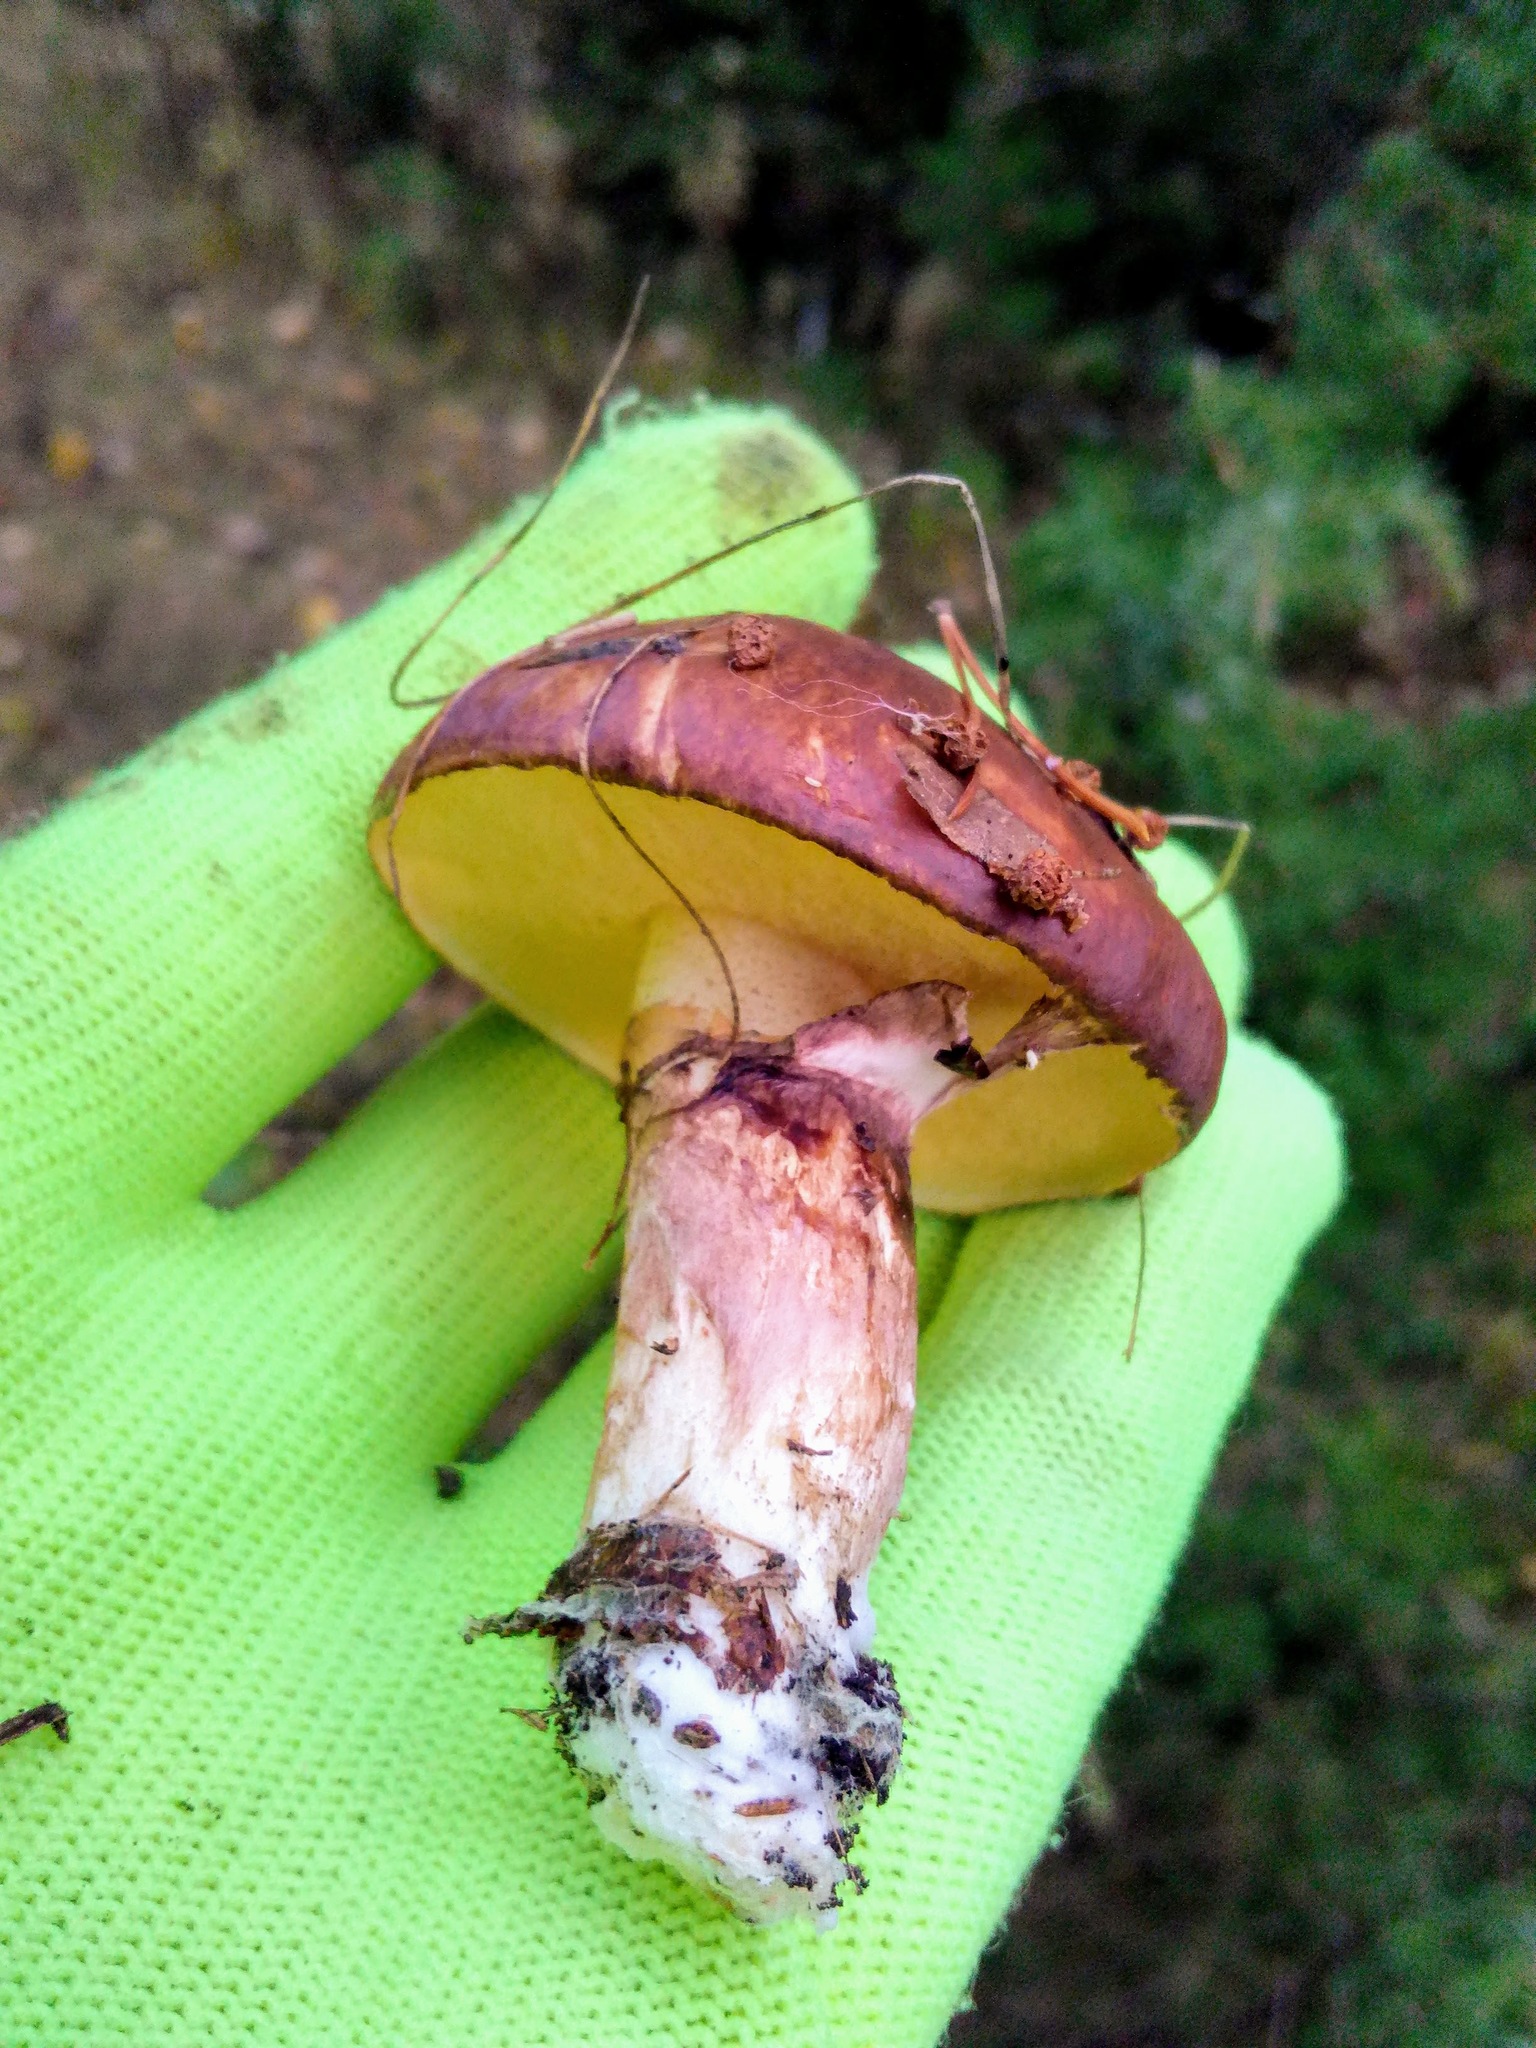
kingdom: Fungi
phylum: Basidiomycota
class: Agaricomycetes
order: Boletales
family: Suillaceae
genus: Suillus
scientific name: Suillus luteus
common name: Slippery jack
